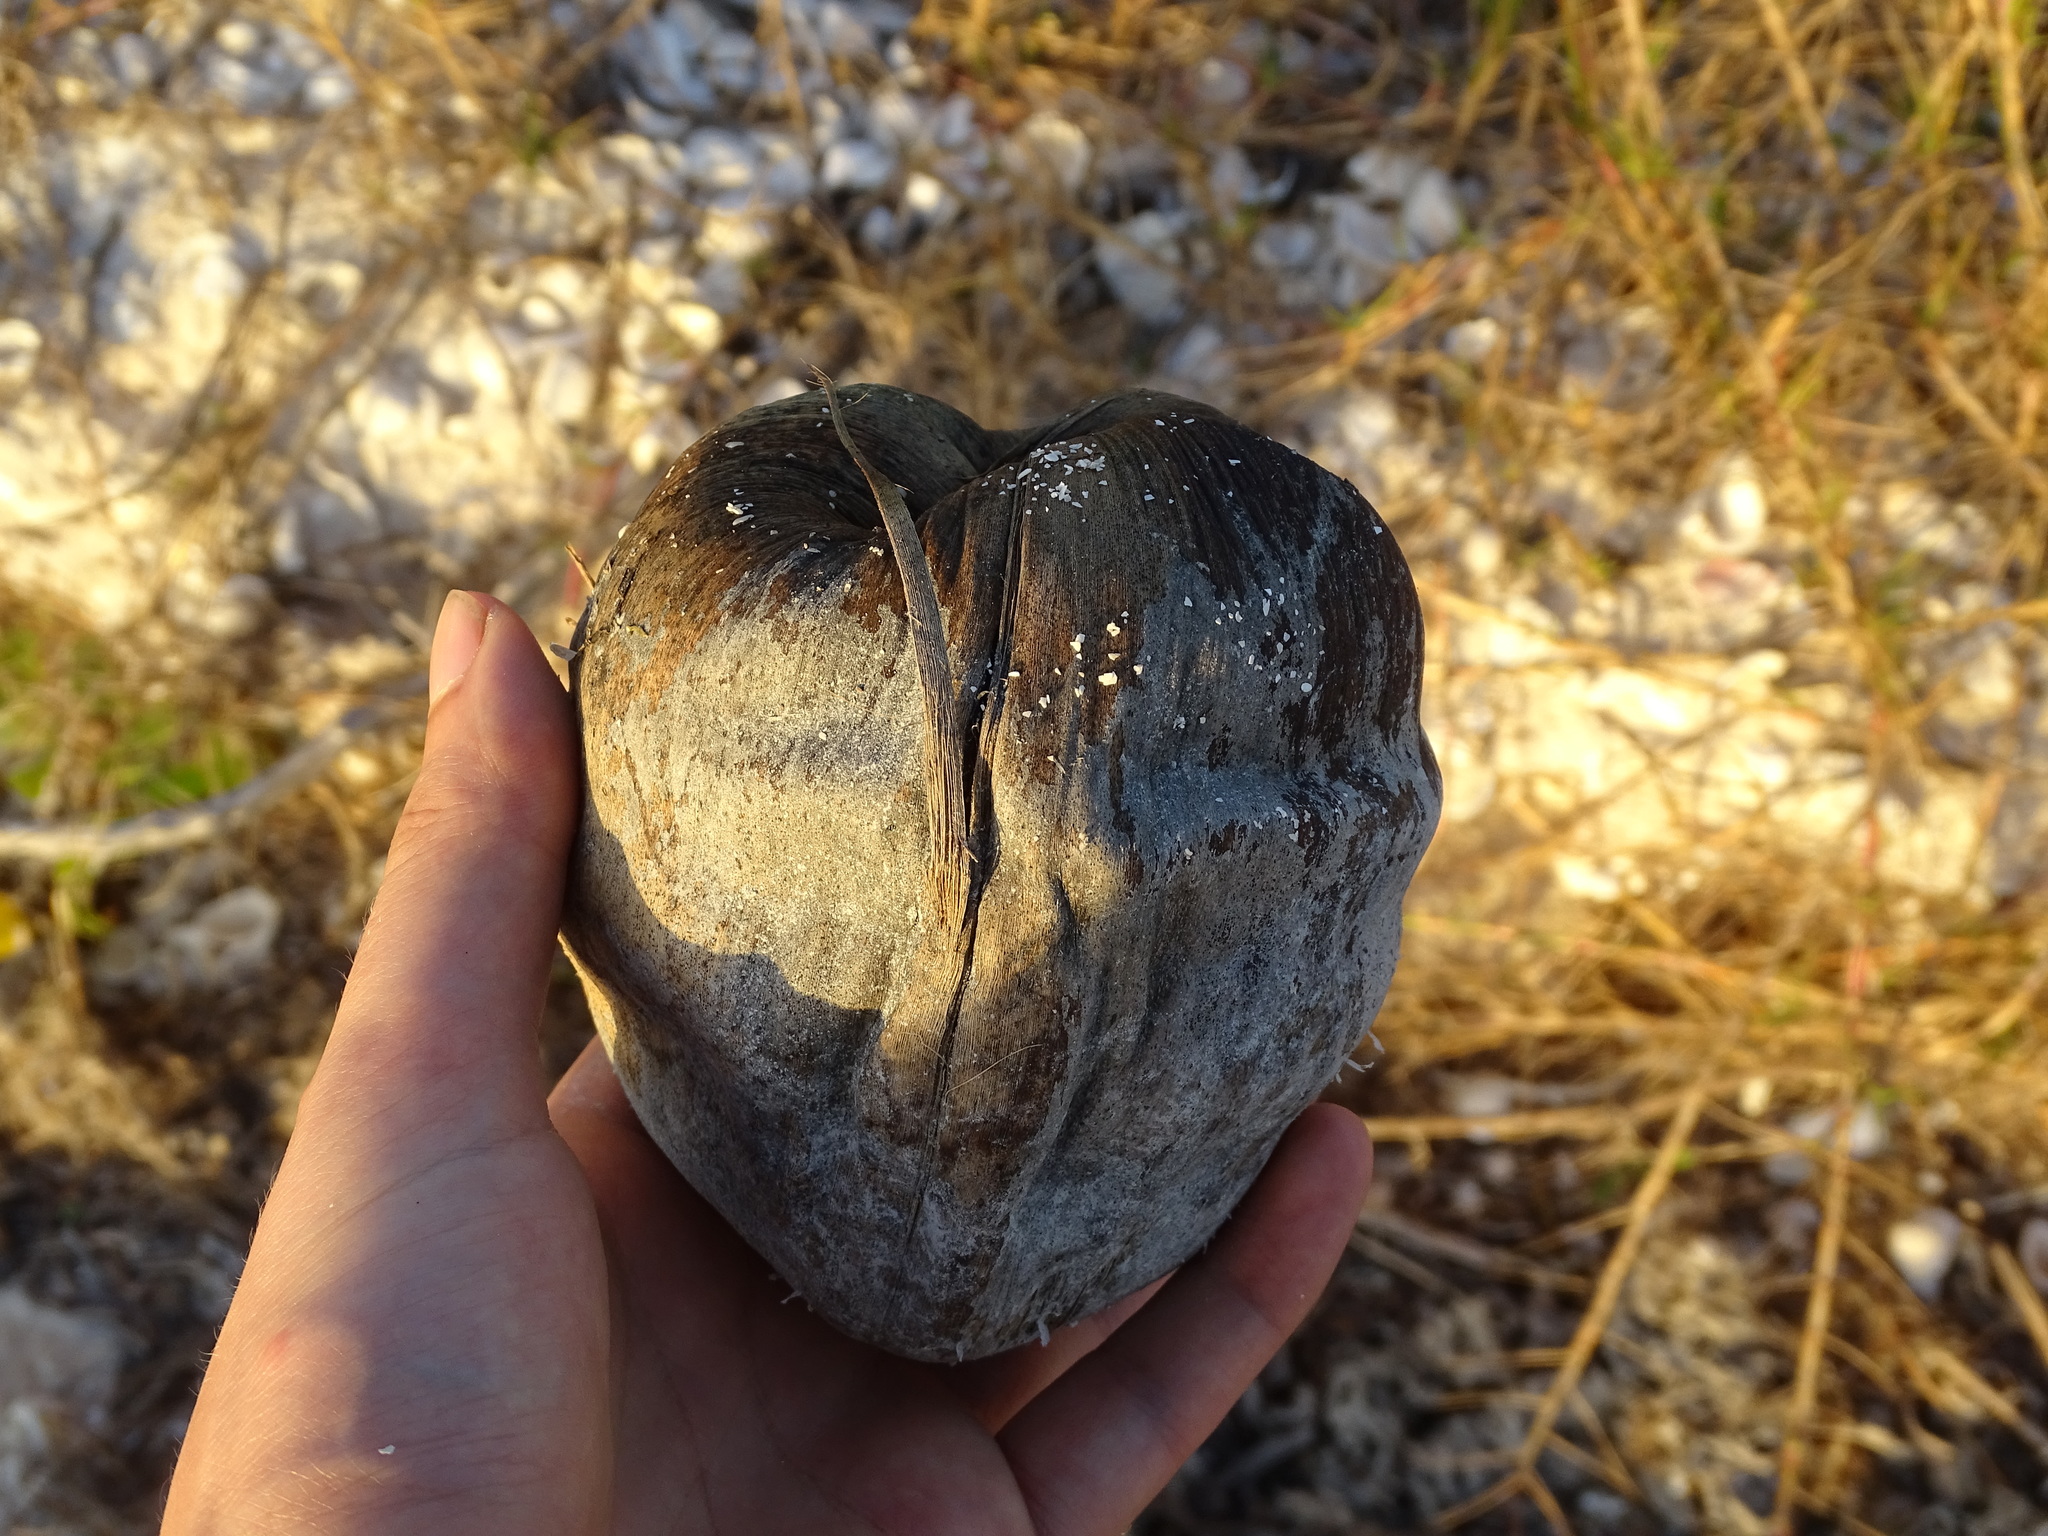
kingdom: Plantae
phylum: Tracheophyta
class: Liliopsida
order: Arecales
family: Arecaceae
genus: Cocos
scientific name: Cocos nucifera
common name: Coconut palm
